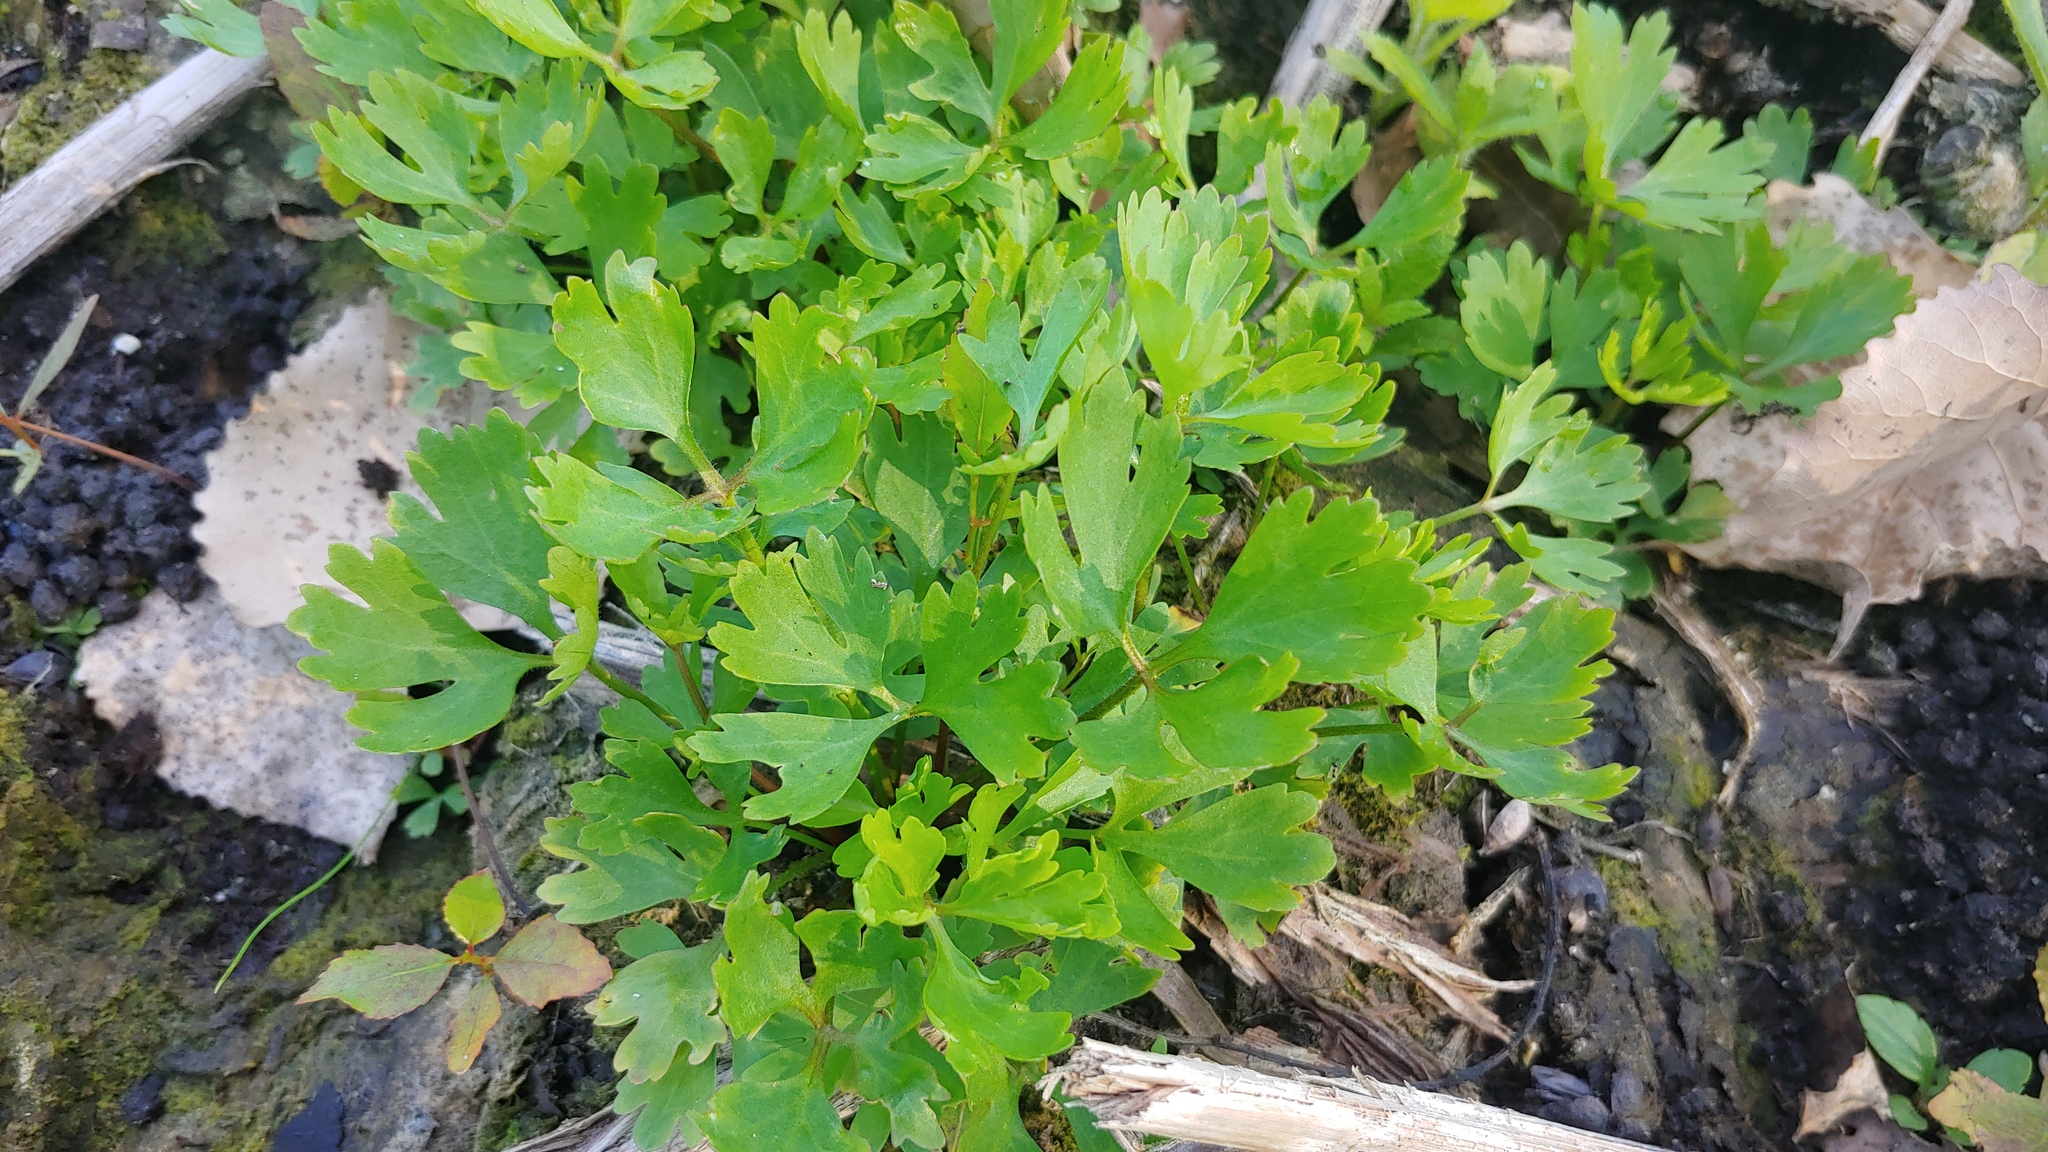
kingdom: Plantae
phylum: Tracheophyta
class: Magnoliopsida
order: Ranunculales
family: Ranunculaceae
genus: Ranunculus
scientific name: Ranunculus flabellaris
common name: Yellow water-crowfoot
